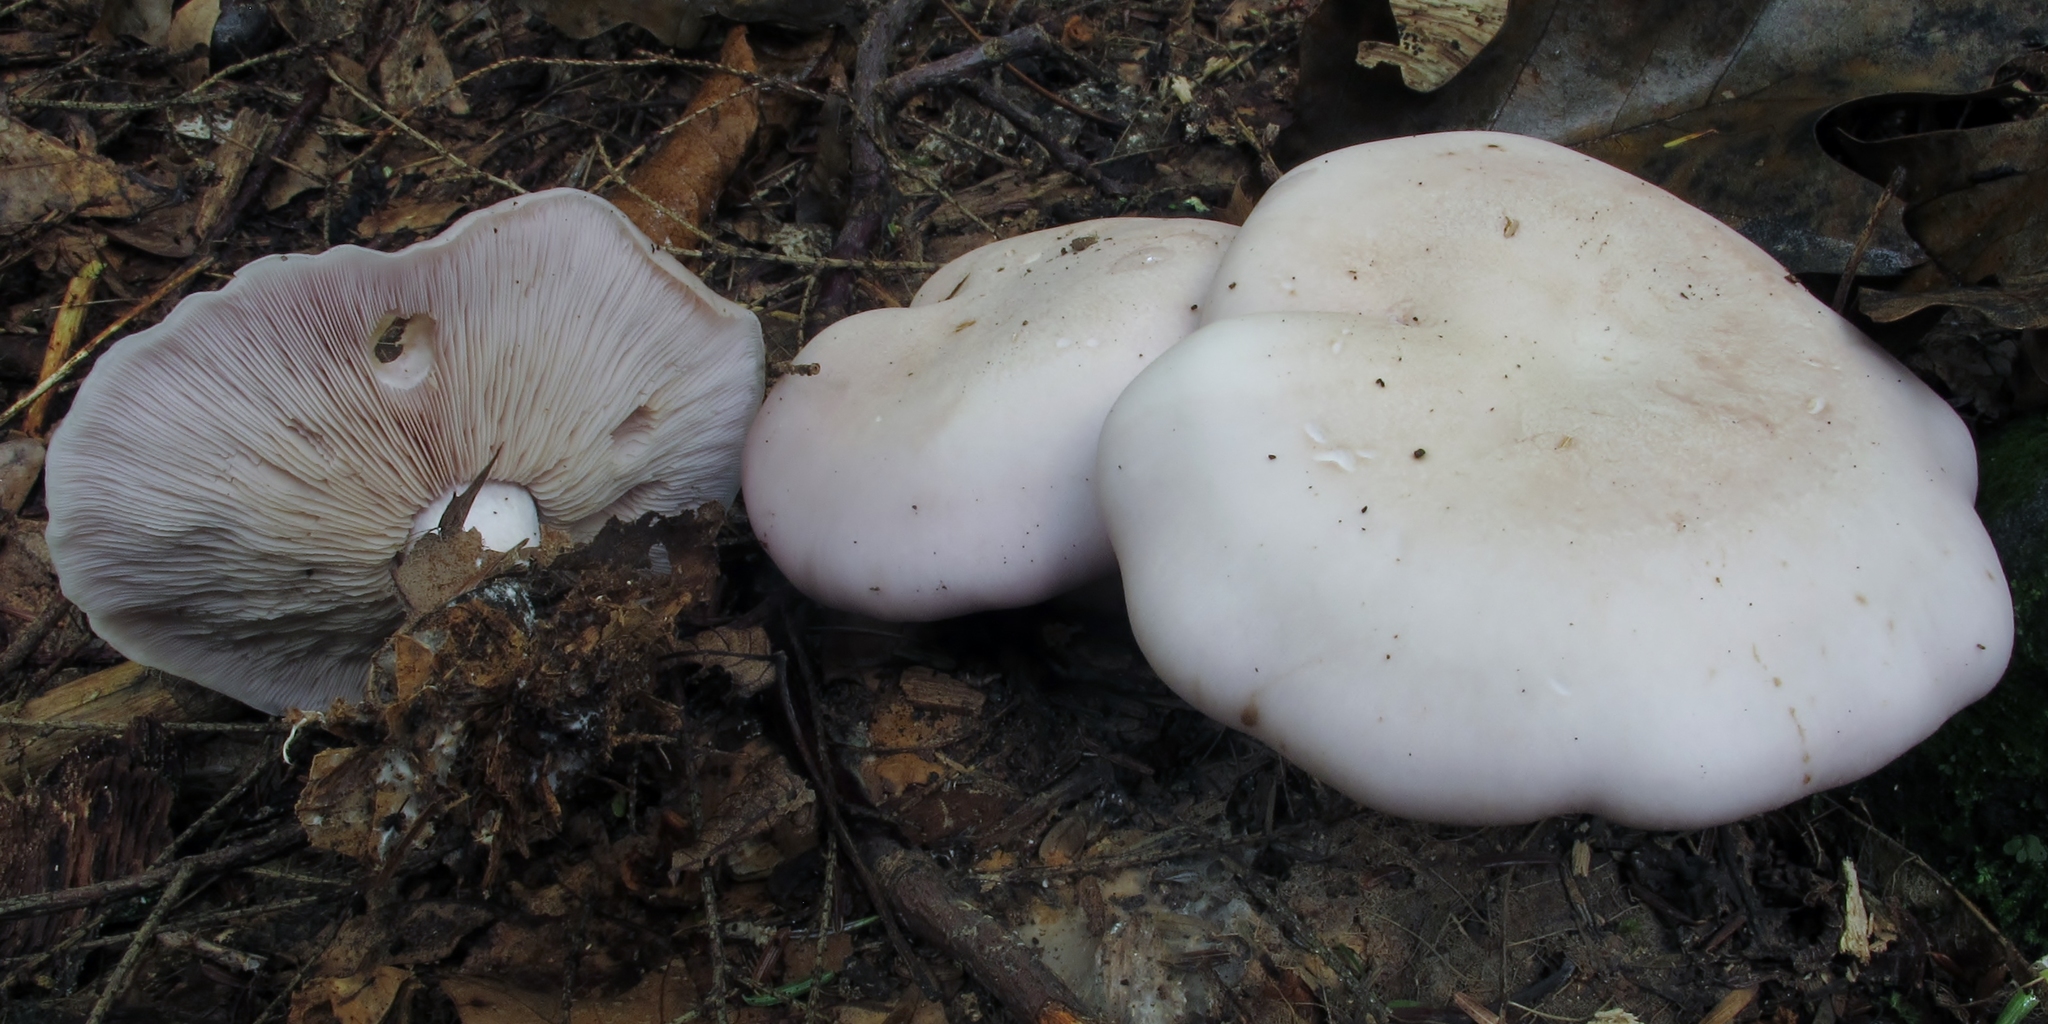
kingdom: Fungi
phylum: Basidiomycota
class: Agaricomycetes
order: Agaricales
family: Tricholomataceae
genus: Collybia
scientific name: Collybia
